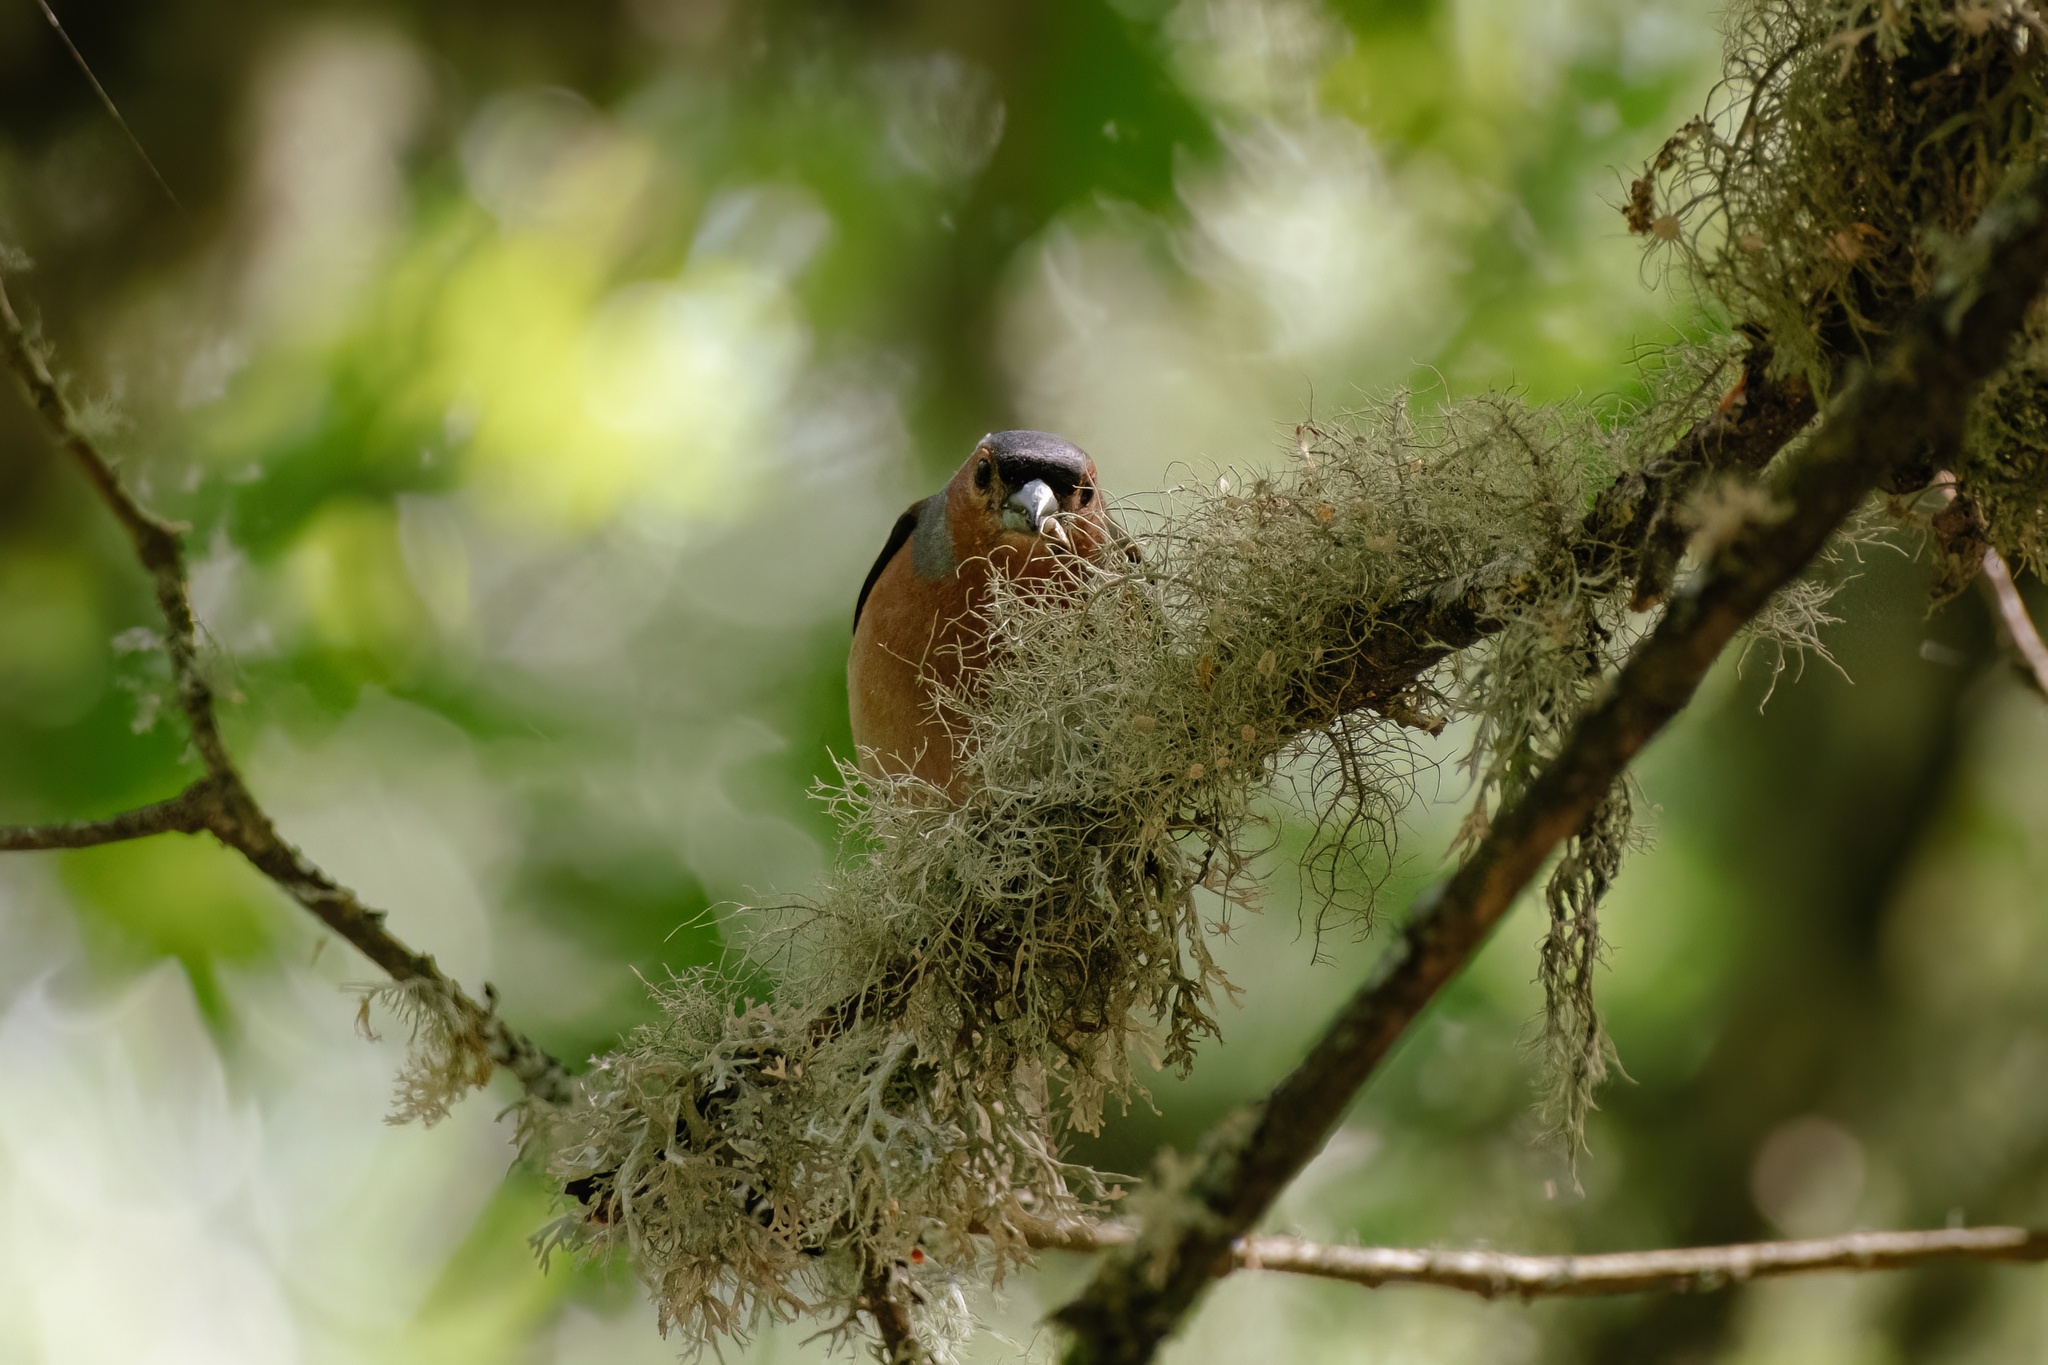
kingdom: Animalia
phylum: Chordata
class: Aves
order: Passeriformes
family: Fringillidae
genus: Fringilla
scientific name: Fringilla coelebs
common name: Common chaffinch
